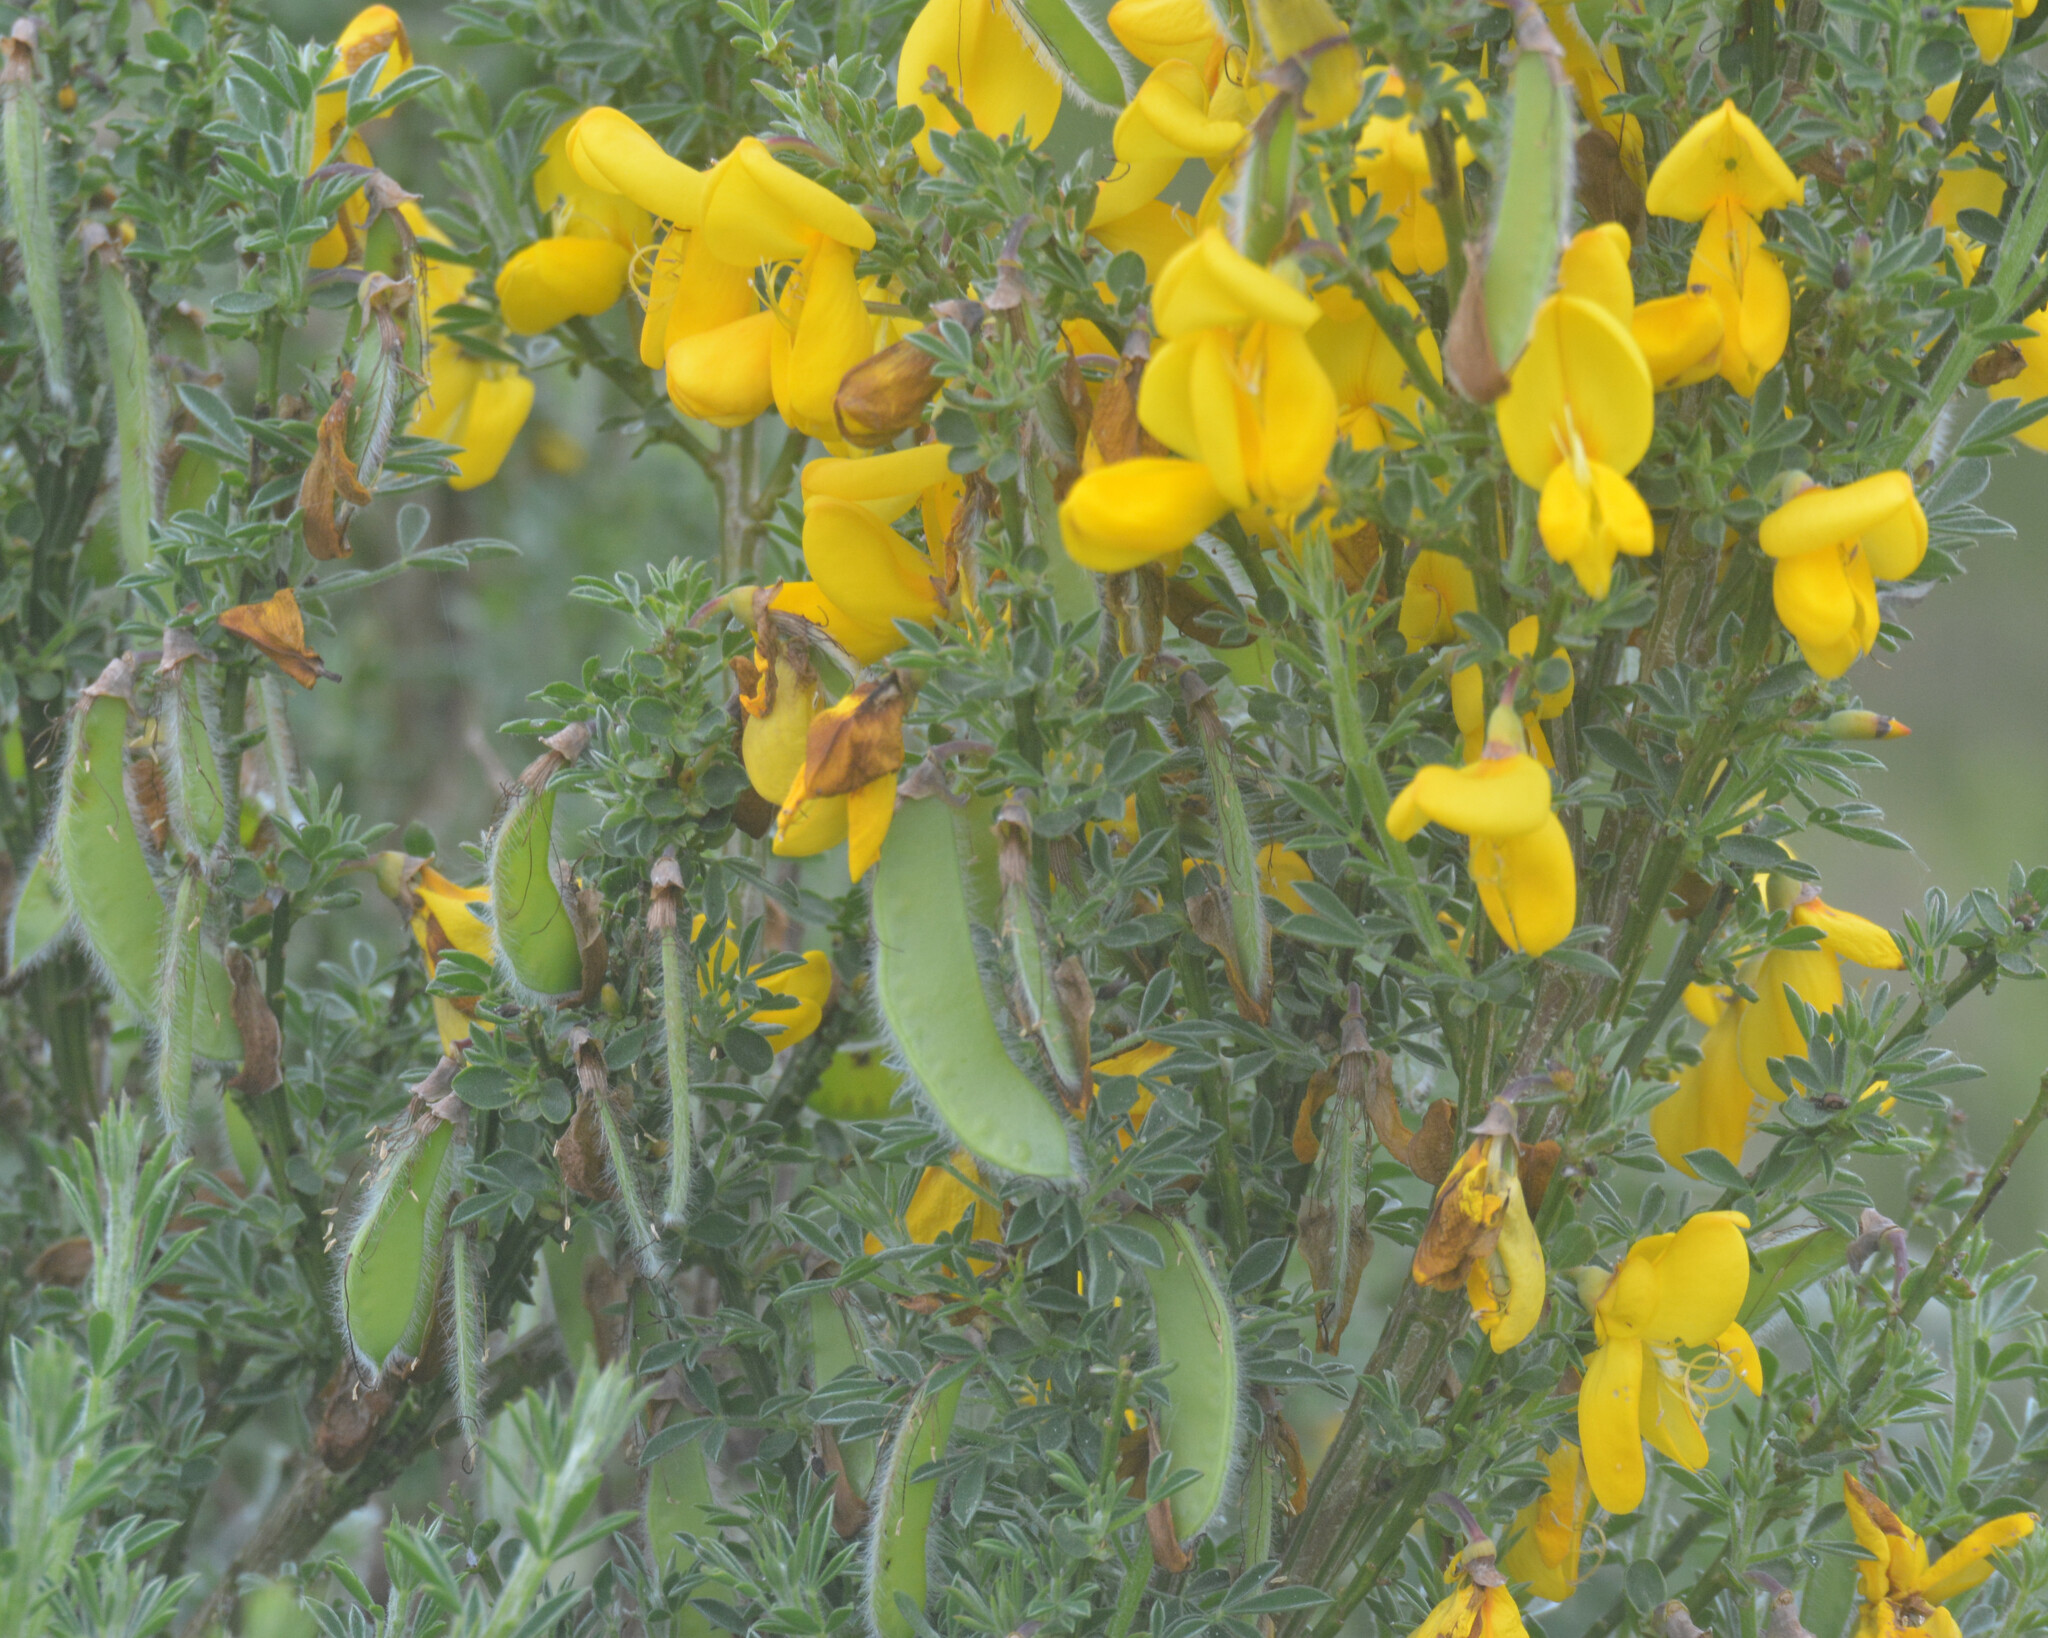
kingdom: Plantae
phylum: Tracheophyta
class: Magnoliopsida
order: Fabales
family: Fabaceae
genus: Cytisus
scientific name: Cytisus scoparius
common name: Scotch broom
